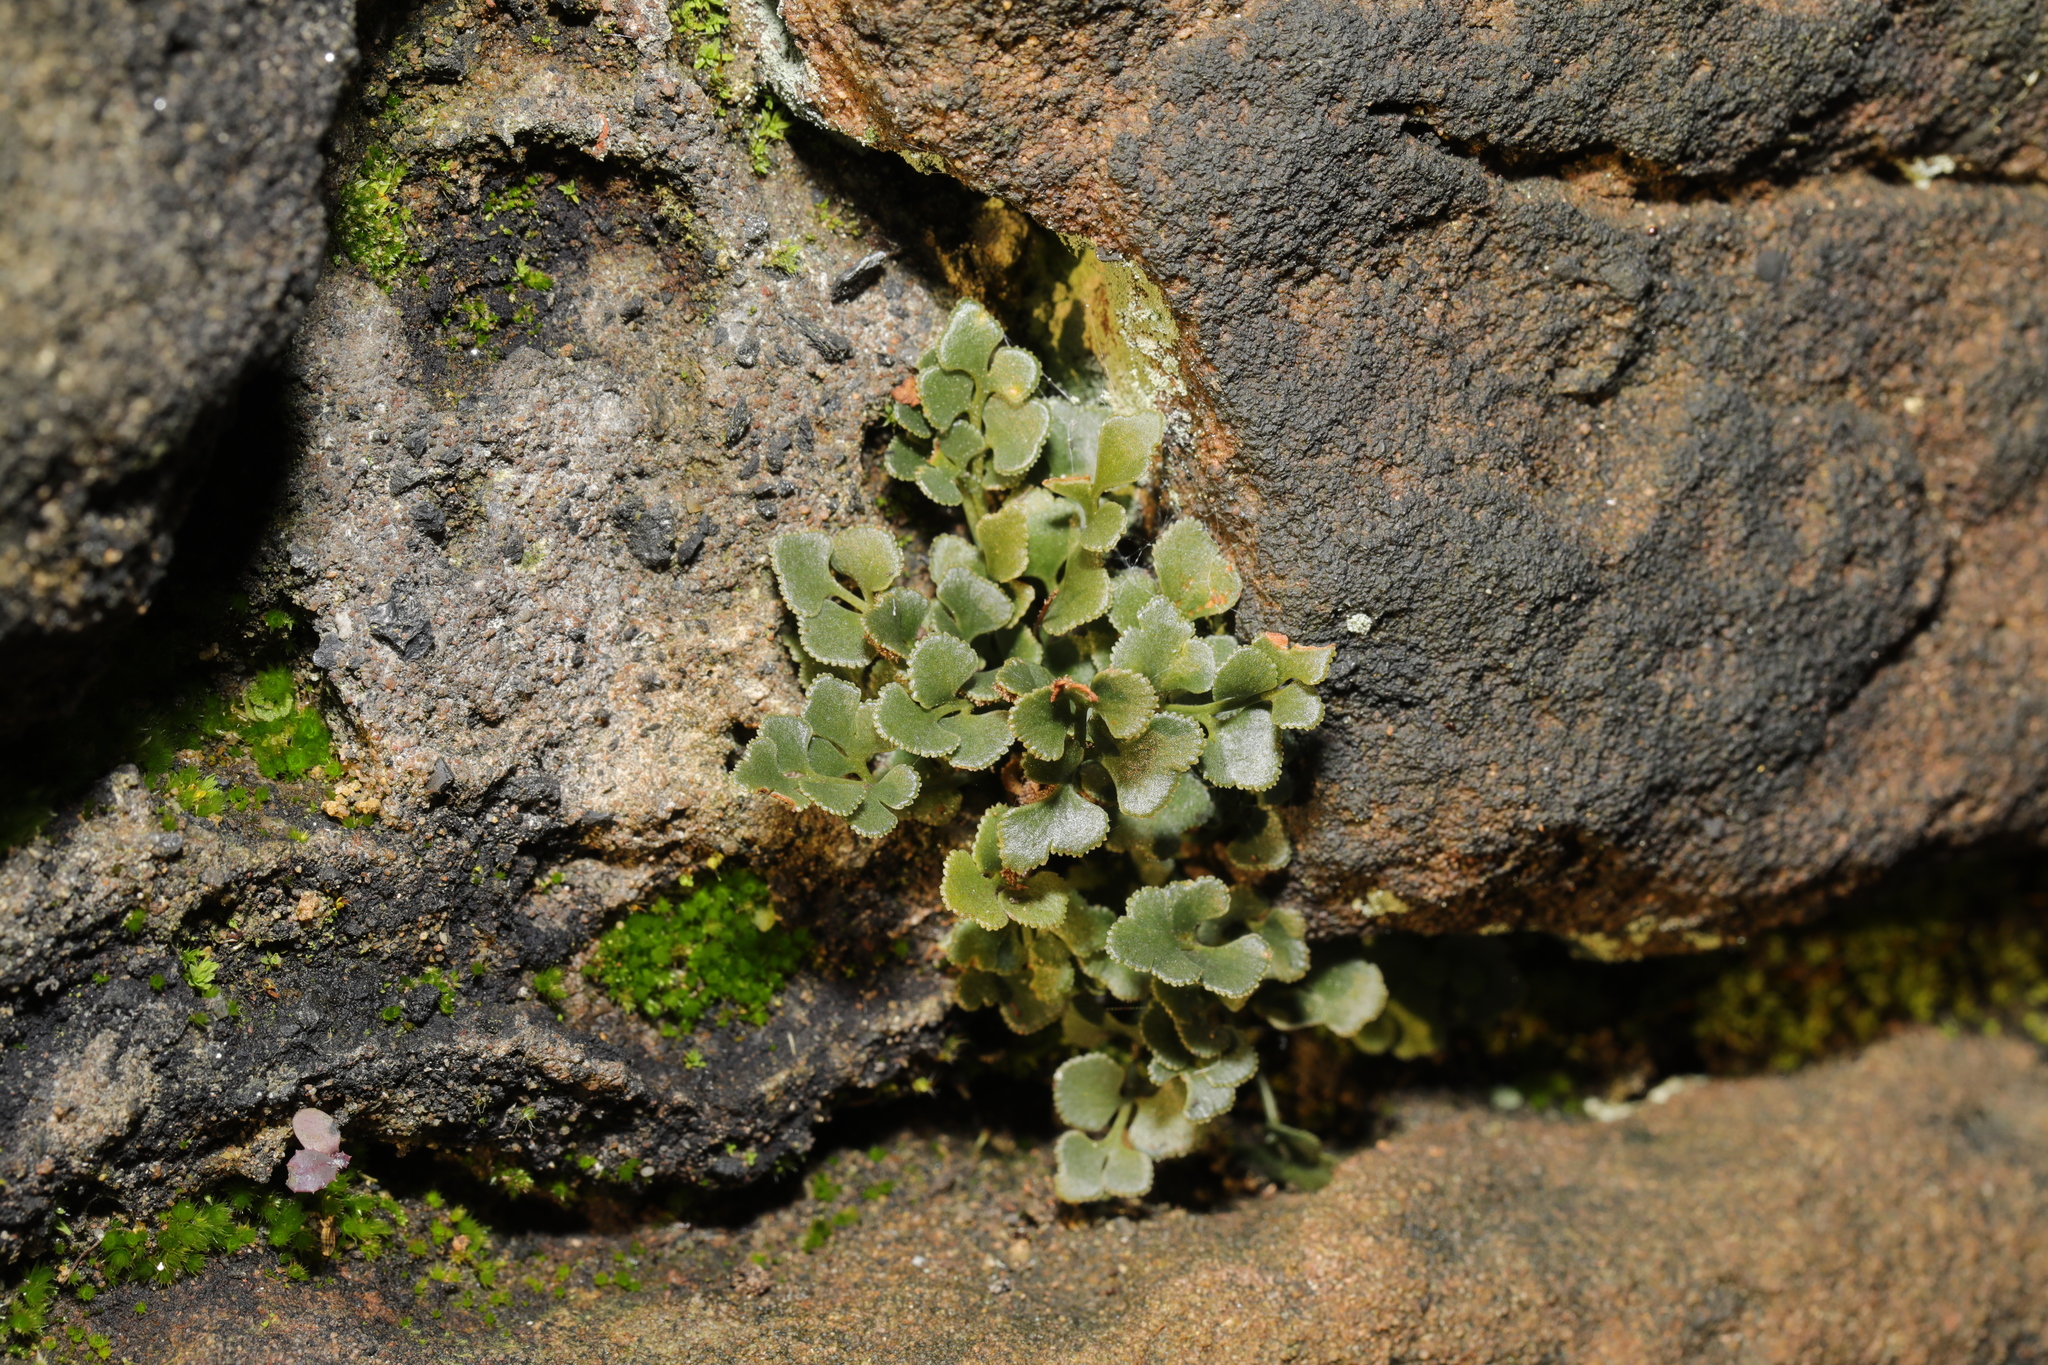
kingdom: Plantae
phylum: Tracheophyta
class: Polypodiopsida
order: Polypodiales
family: Aspleniaceae
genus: Asplenium
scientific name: Asplenium ruta-muraria
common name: Wall-rue
